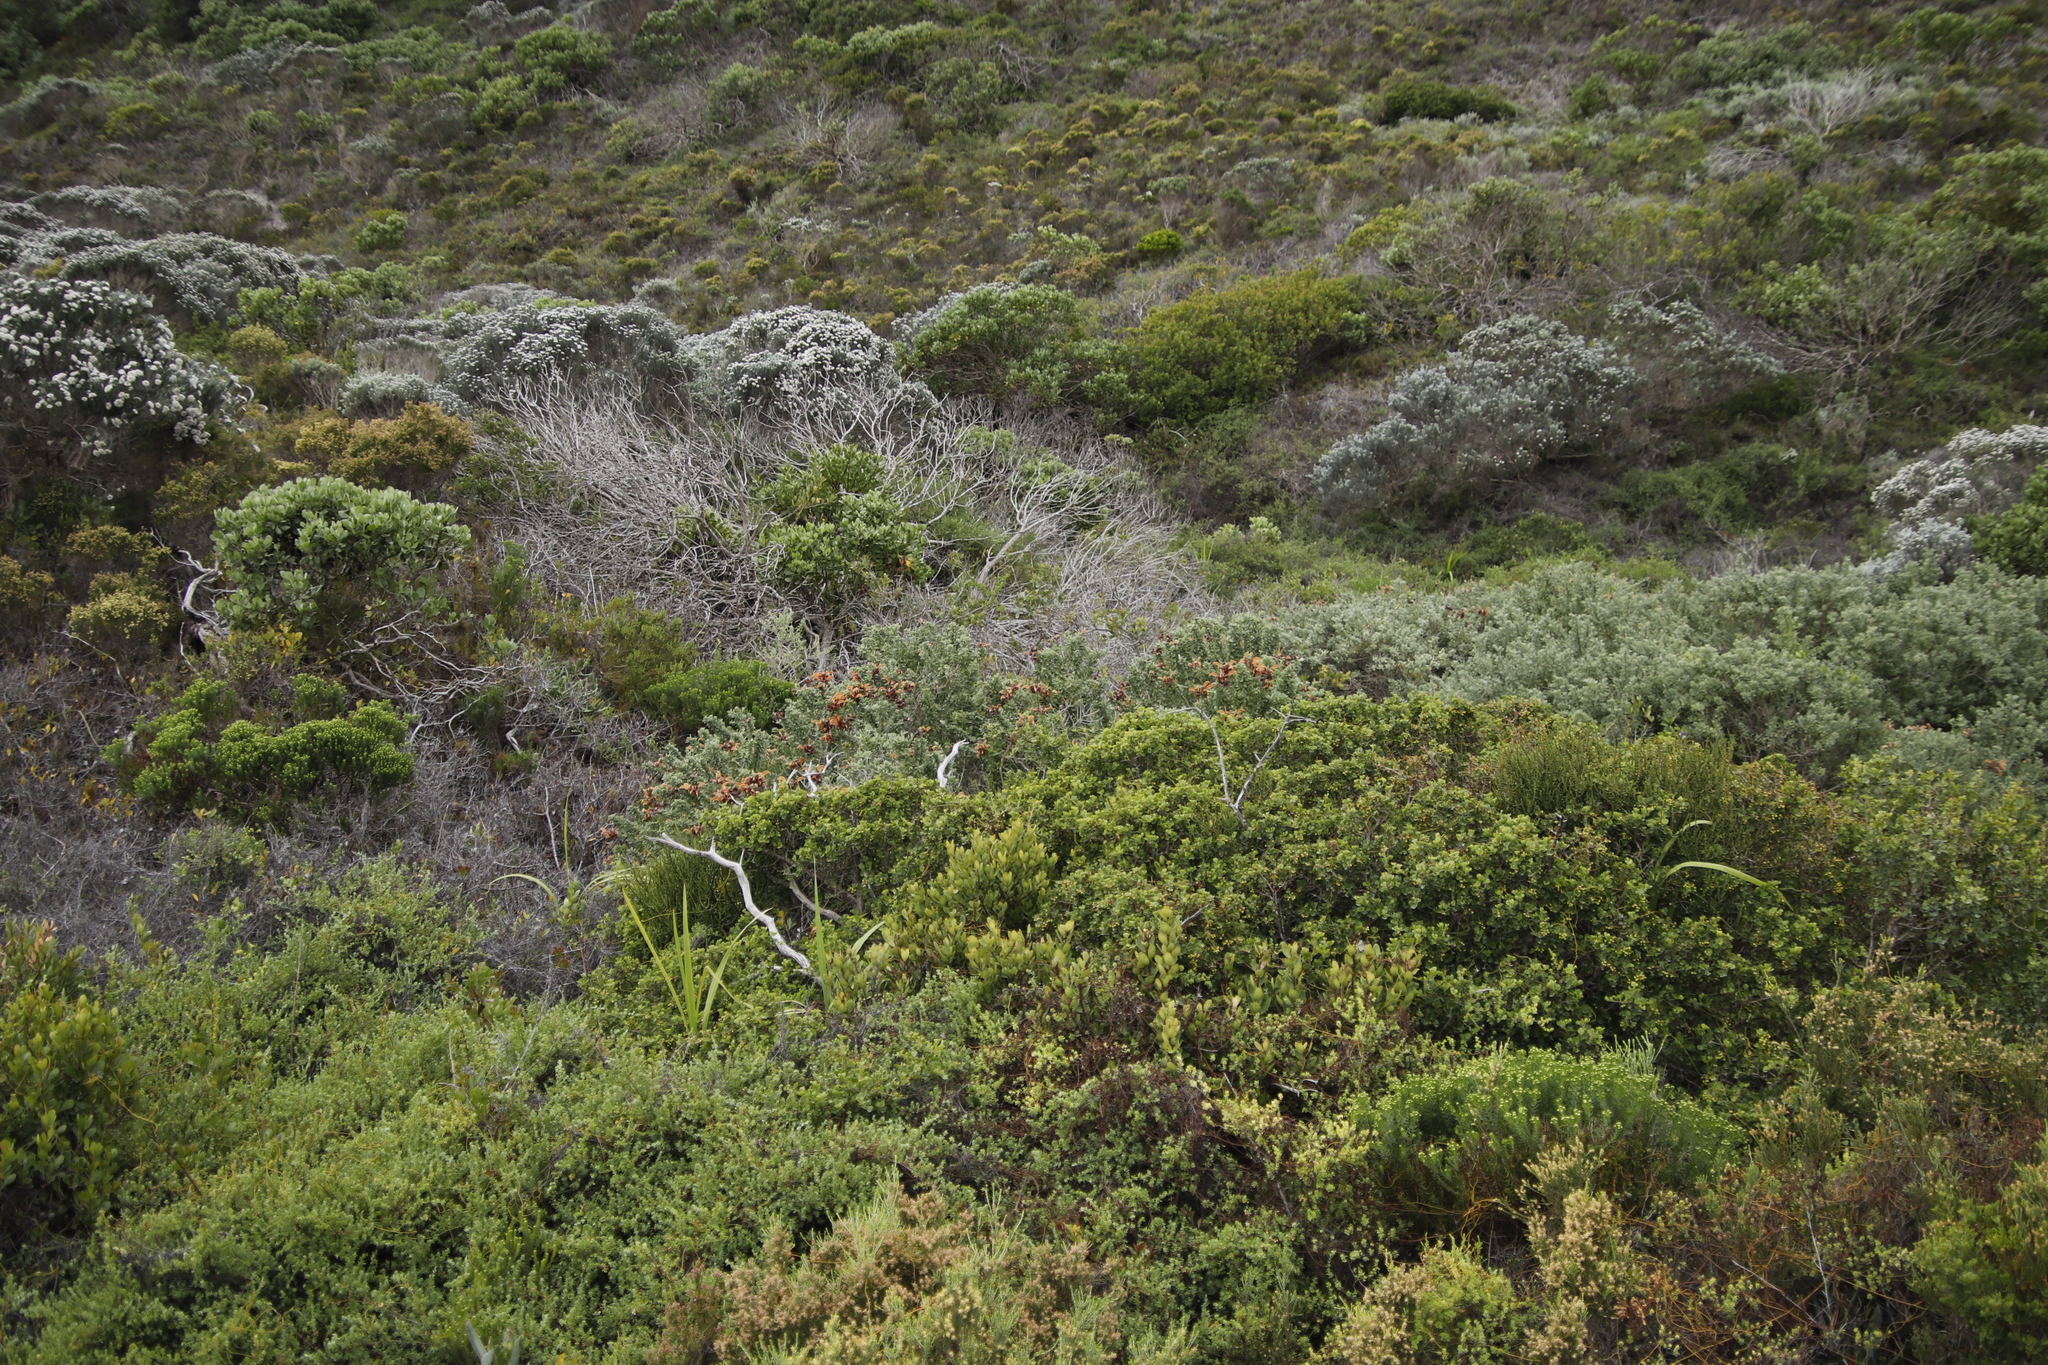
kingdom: Plantae
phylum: Tracheophyta
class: Magnoliopsida
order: Lamiales
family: Lamiaceae
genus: Salvia
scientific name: Salvia aurea
